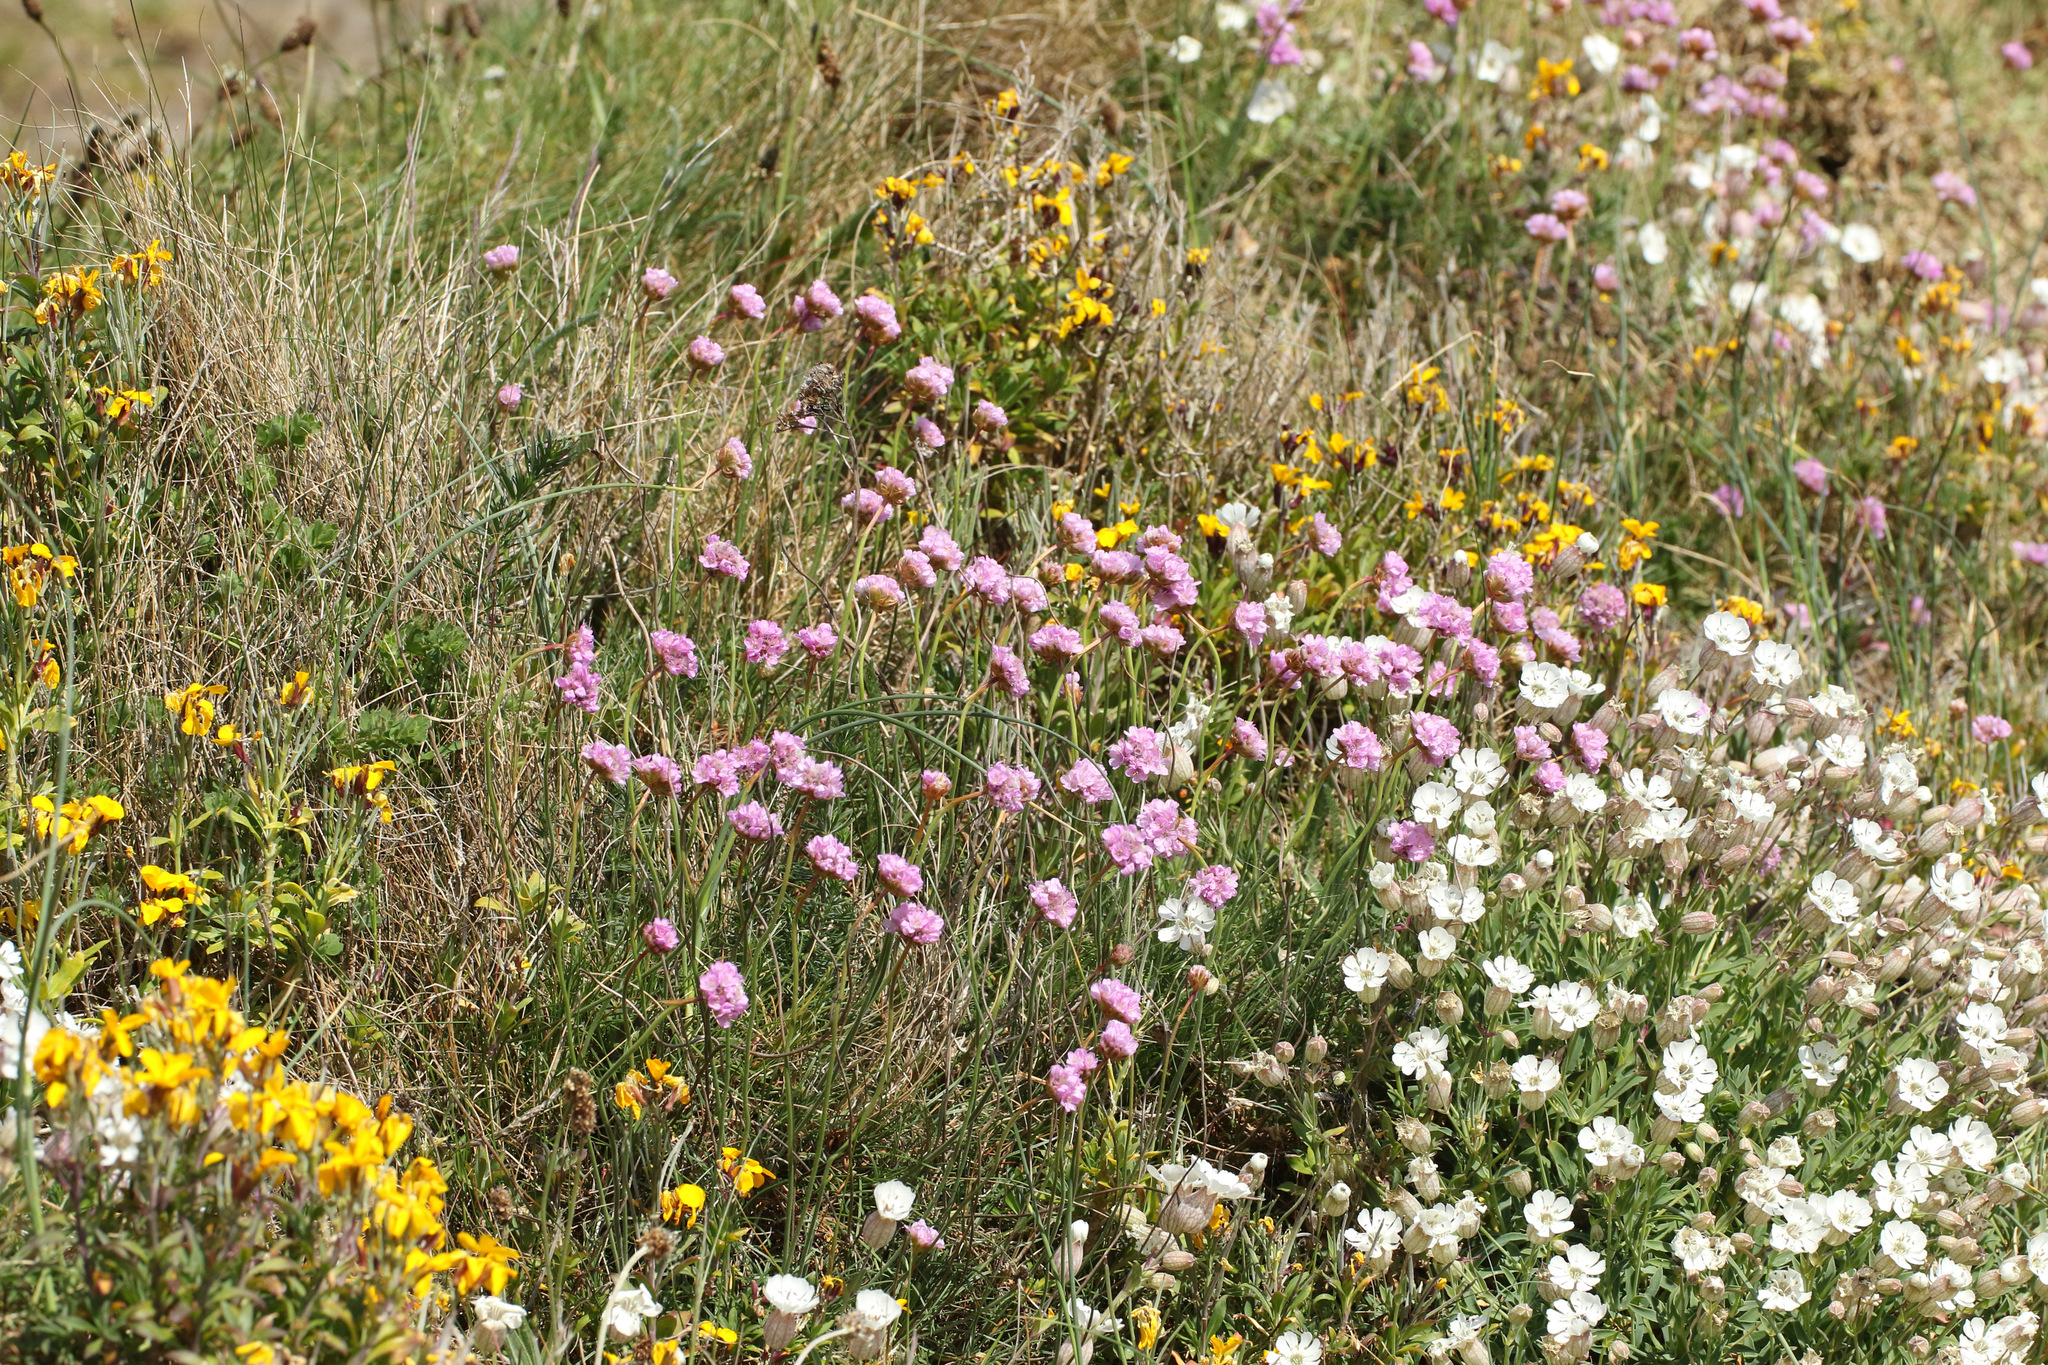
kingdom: Plantae
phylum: Tracheophyta
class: Magnoliopsida
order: Caryophyllales
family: Plumbaginaceae
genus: Armeria
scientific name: Armeria maritima
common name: Thrift
